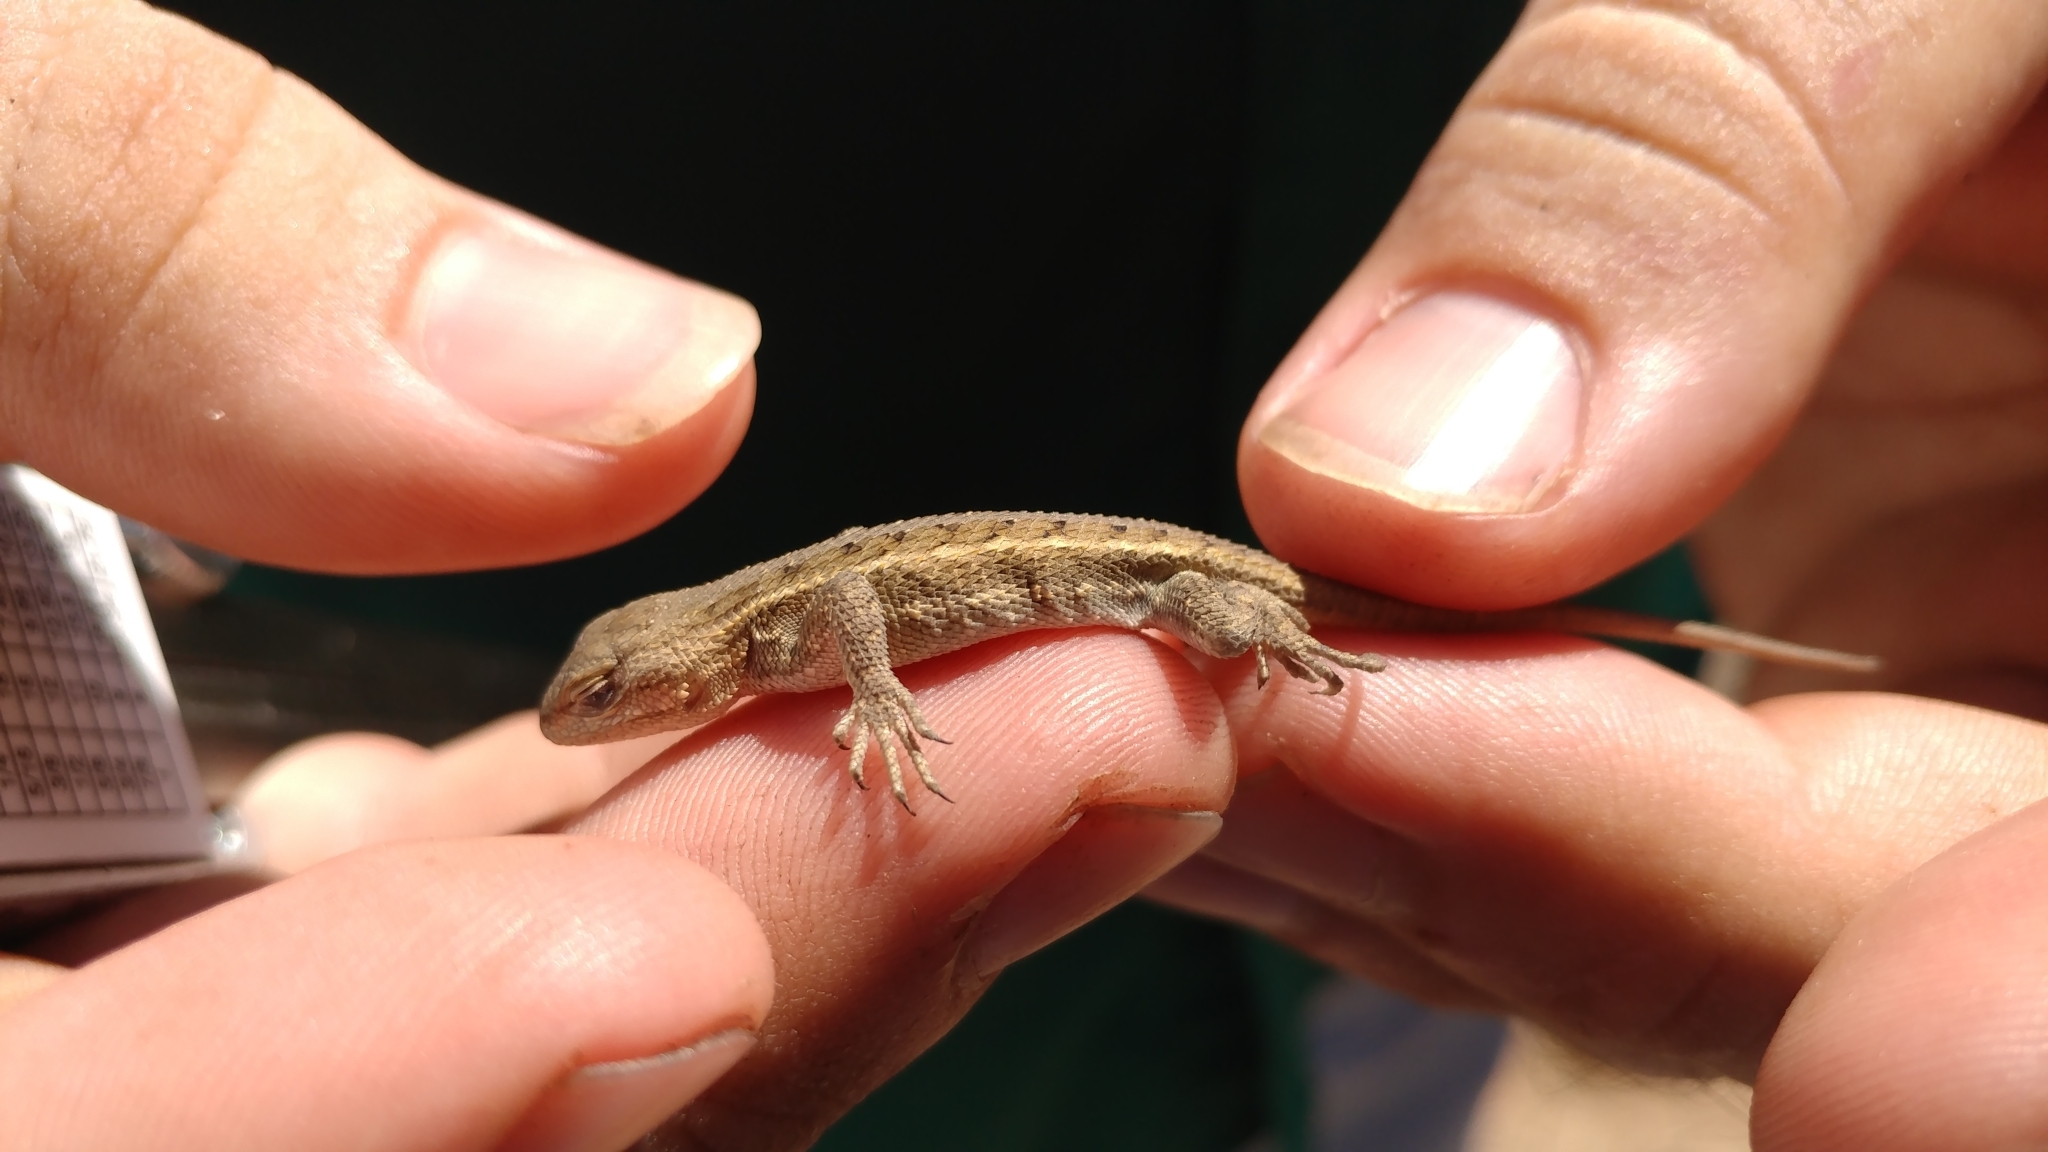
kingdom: Animalia
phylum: Chordata
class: Squamata
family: Phrynosomatidae
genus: Sceloporus
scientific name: Sceloporus consobrinus
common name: Southern prairie lizard
